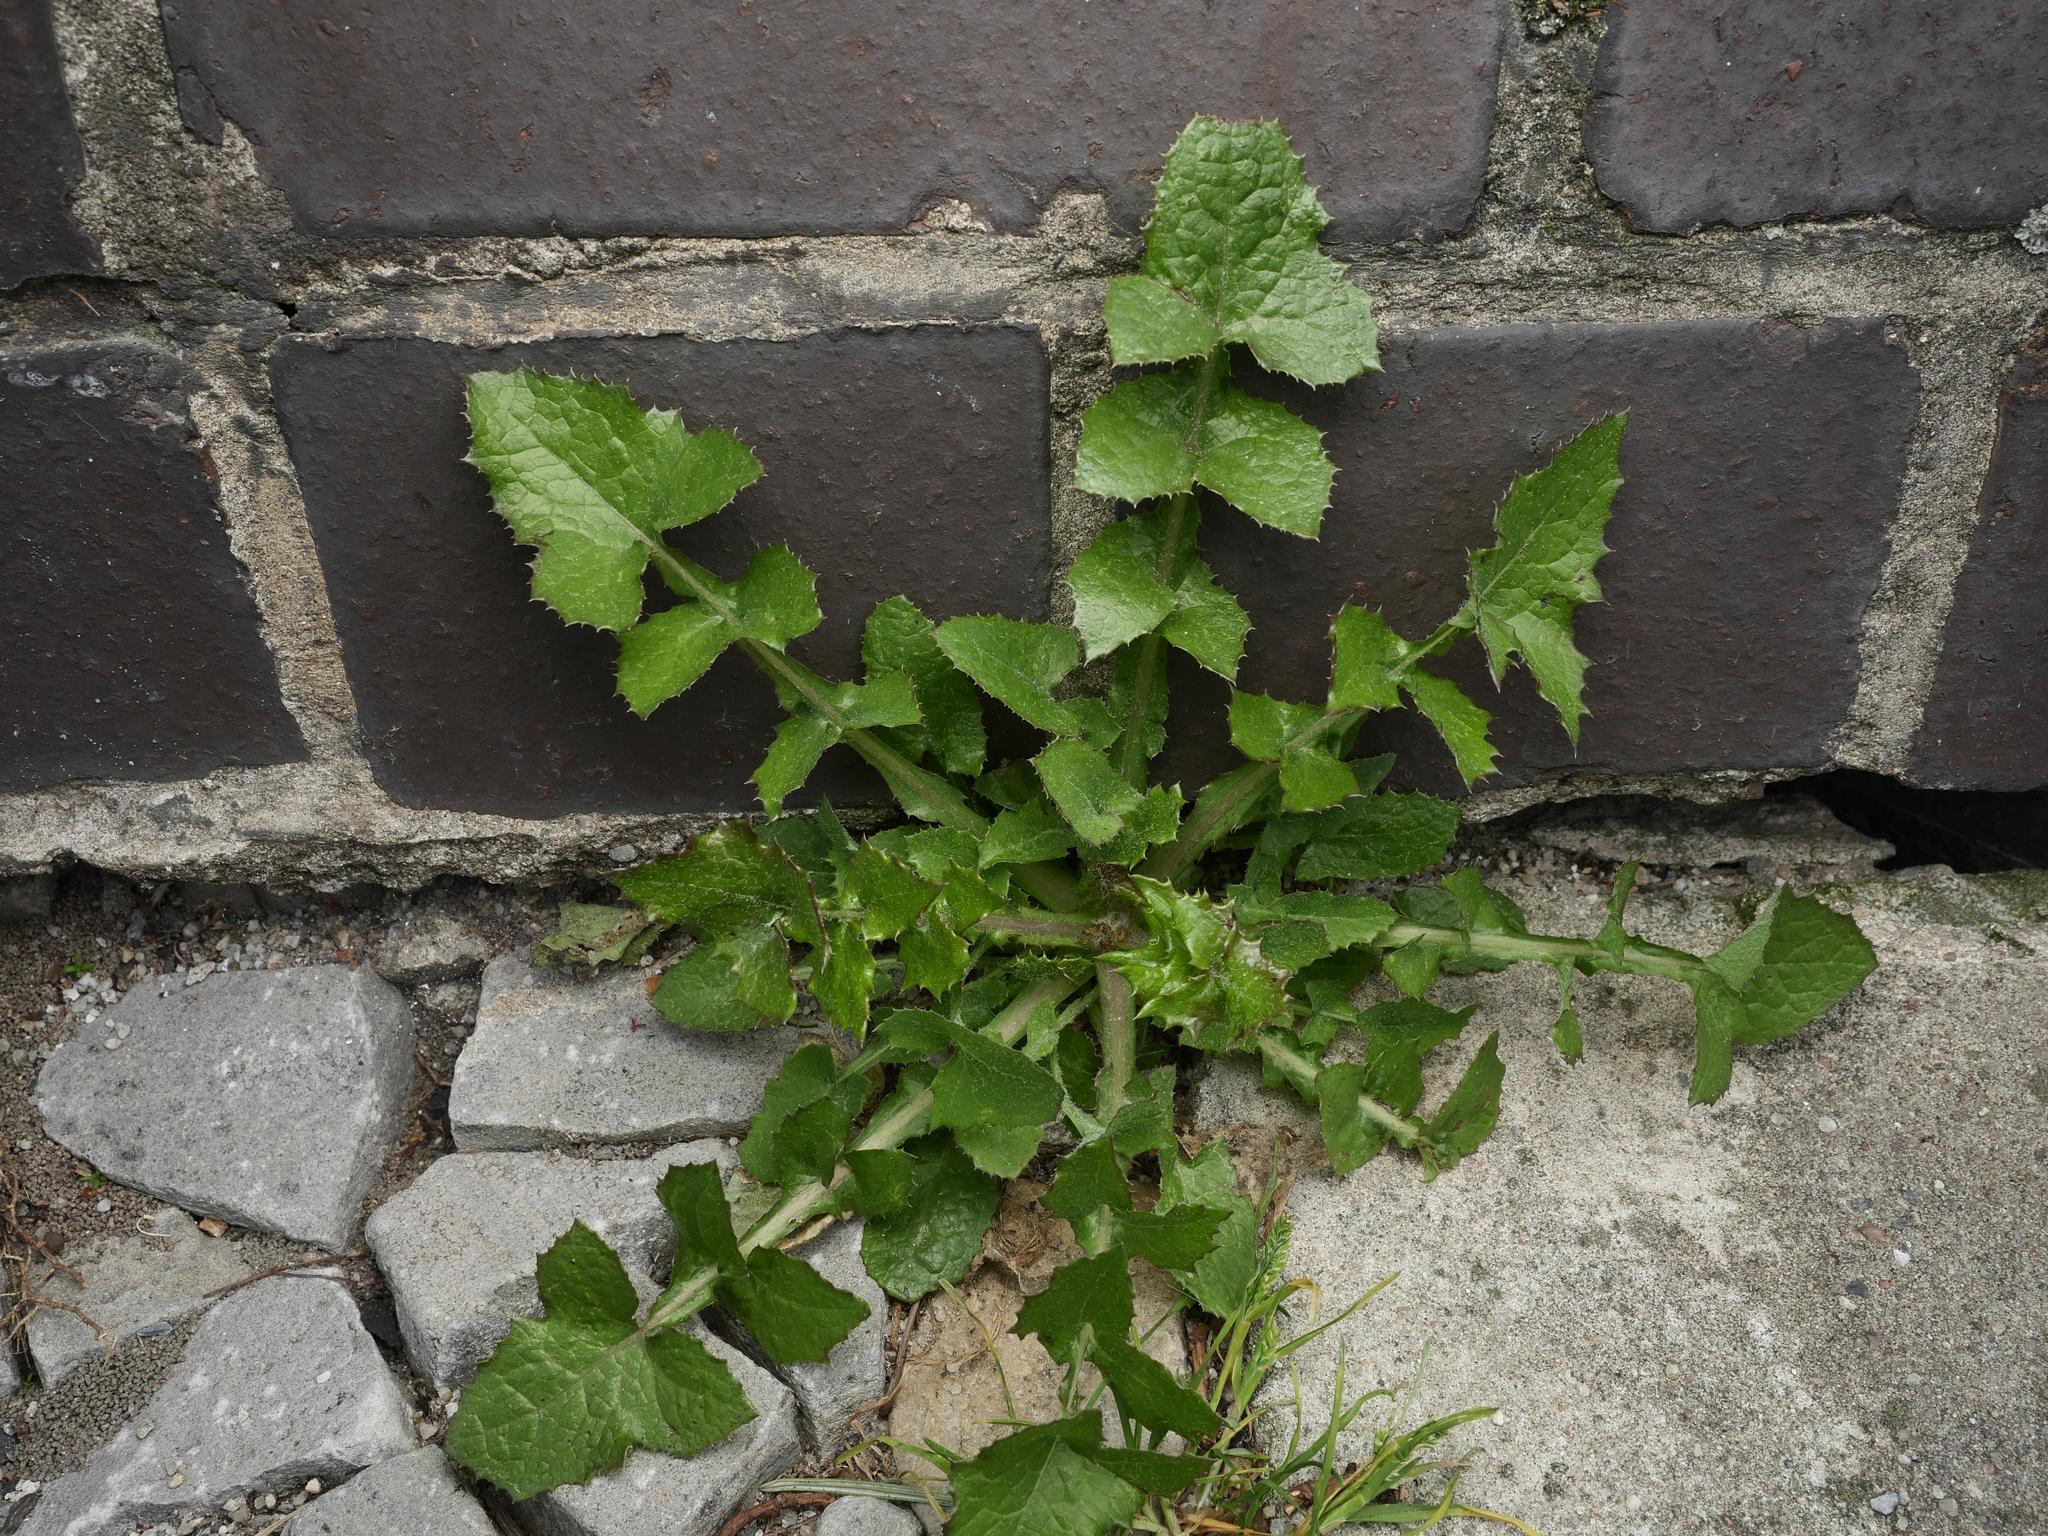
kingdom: Plantae
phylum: Tracheophyta
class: Magnoliopsida
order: Asterales
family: Asteraceae
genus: Sonchus
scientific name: Sonchus oleraceus
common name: Common sowthistle
